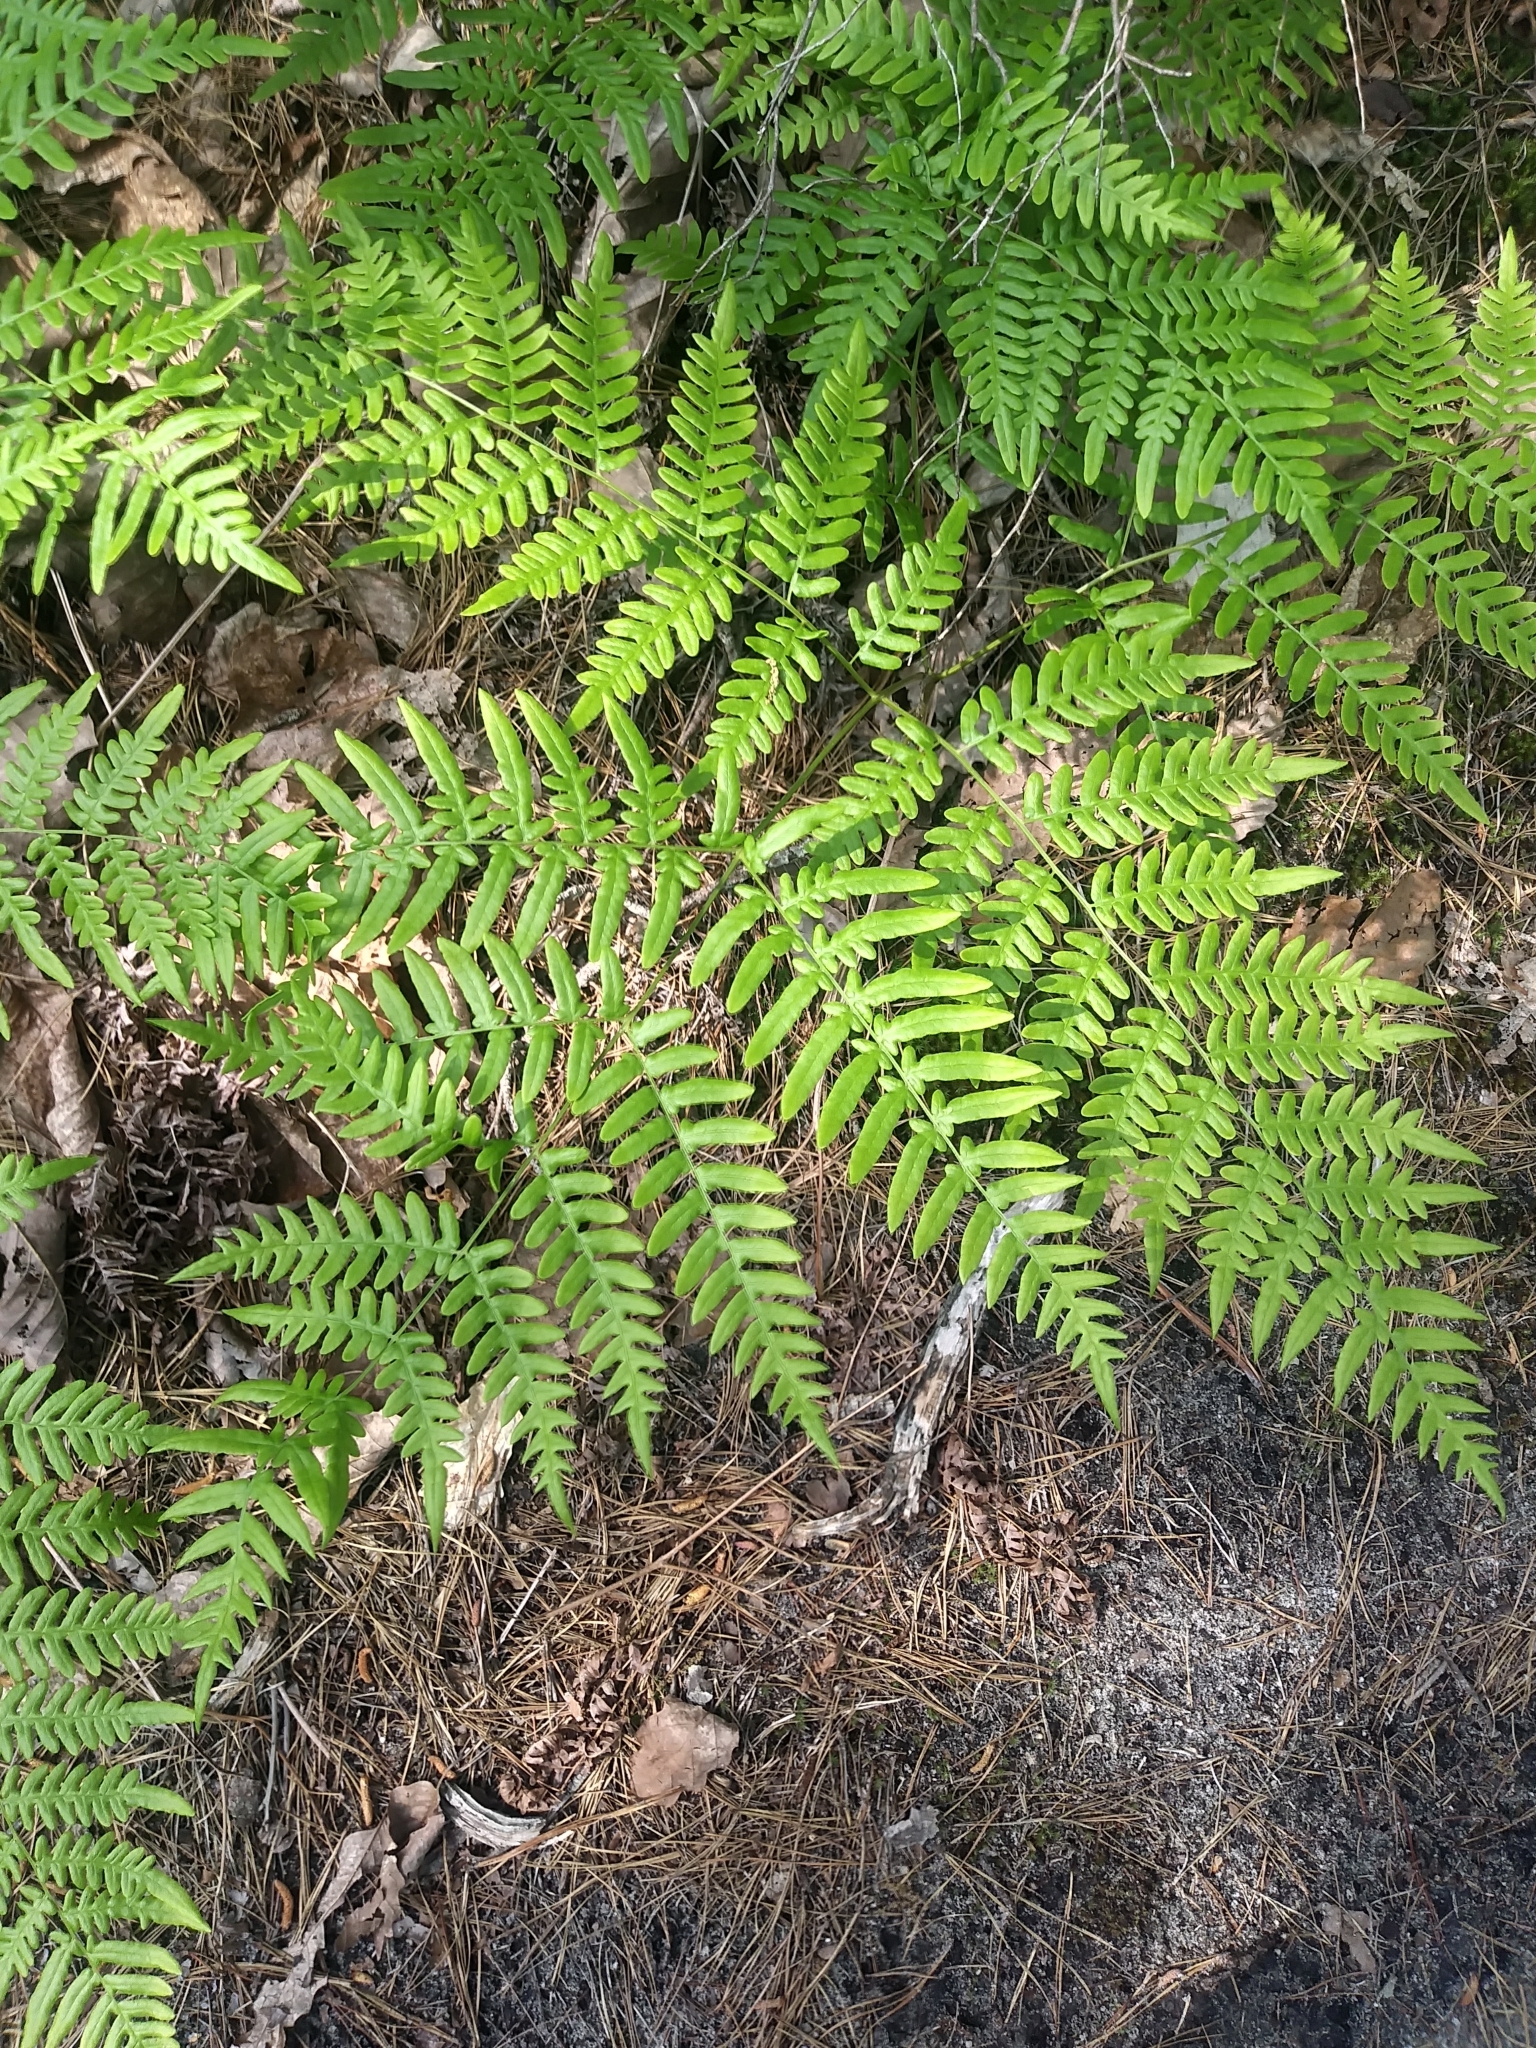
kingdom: Plantae
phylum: Tracheophyta
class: Polypodiopsida
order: Polypodiales
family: Dennstaedtiaceae
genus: Pteridium
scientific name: Pteridium
